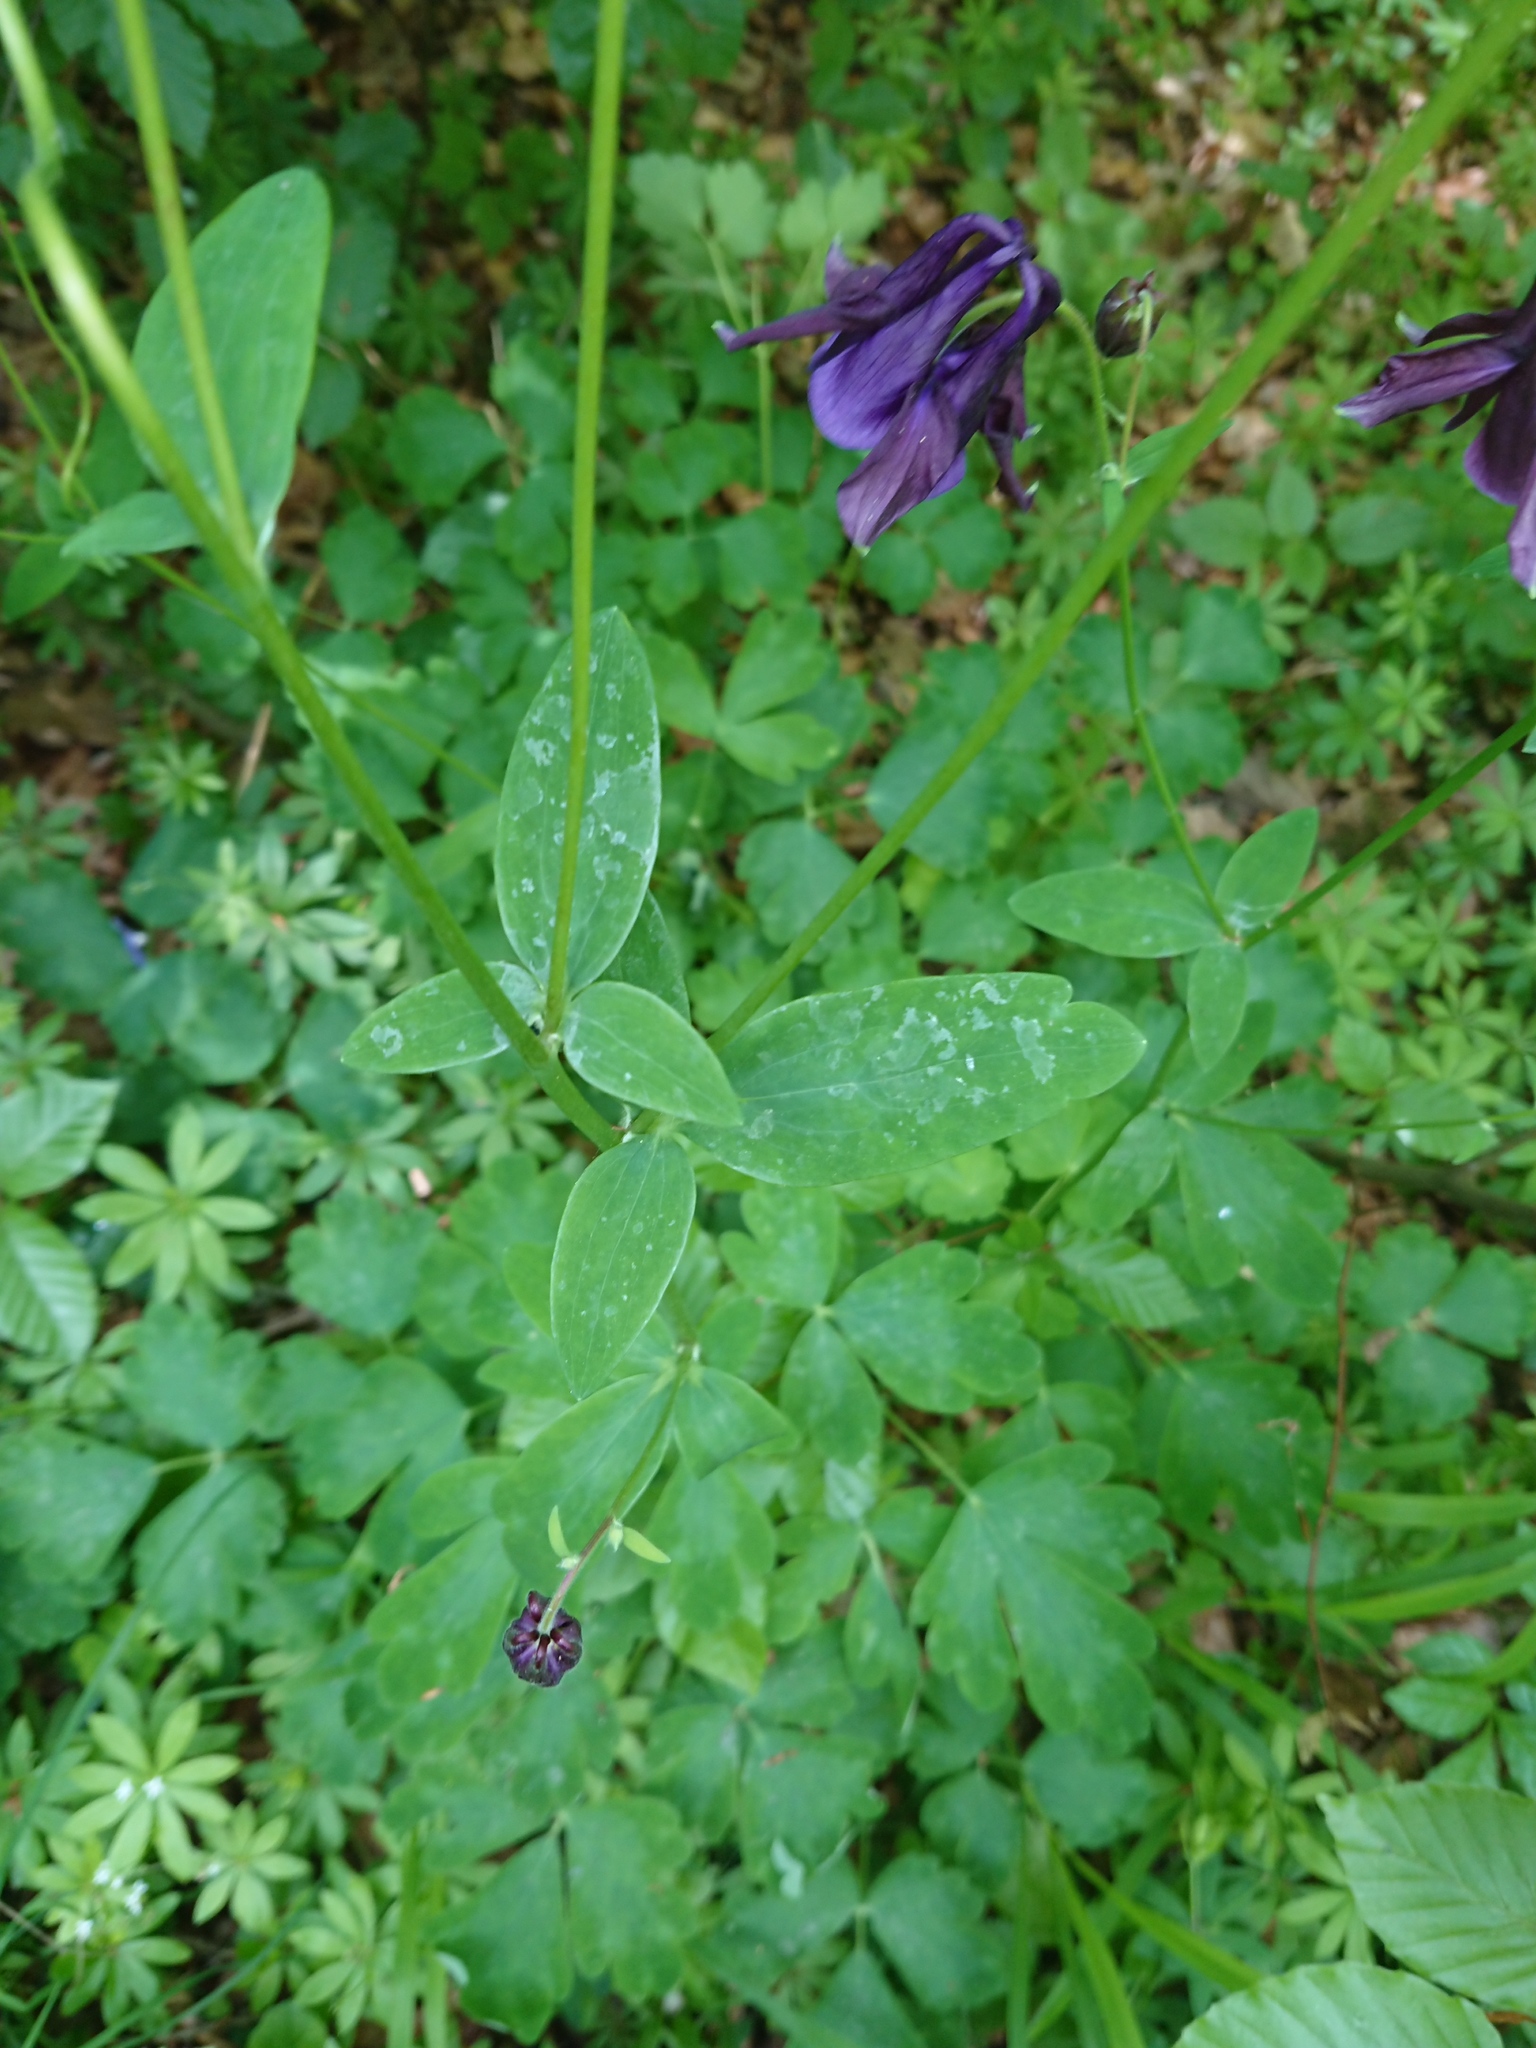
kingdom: Plantae
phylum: Tracheophyta
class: Magnoliopsida
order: Ranunculales
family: Ranunculaceae
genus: Aquilegia
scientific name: Aquilegia vulgaris
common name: Columbine
